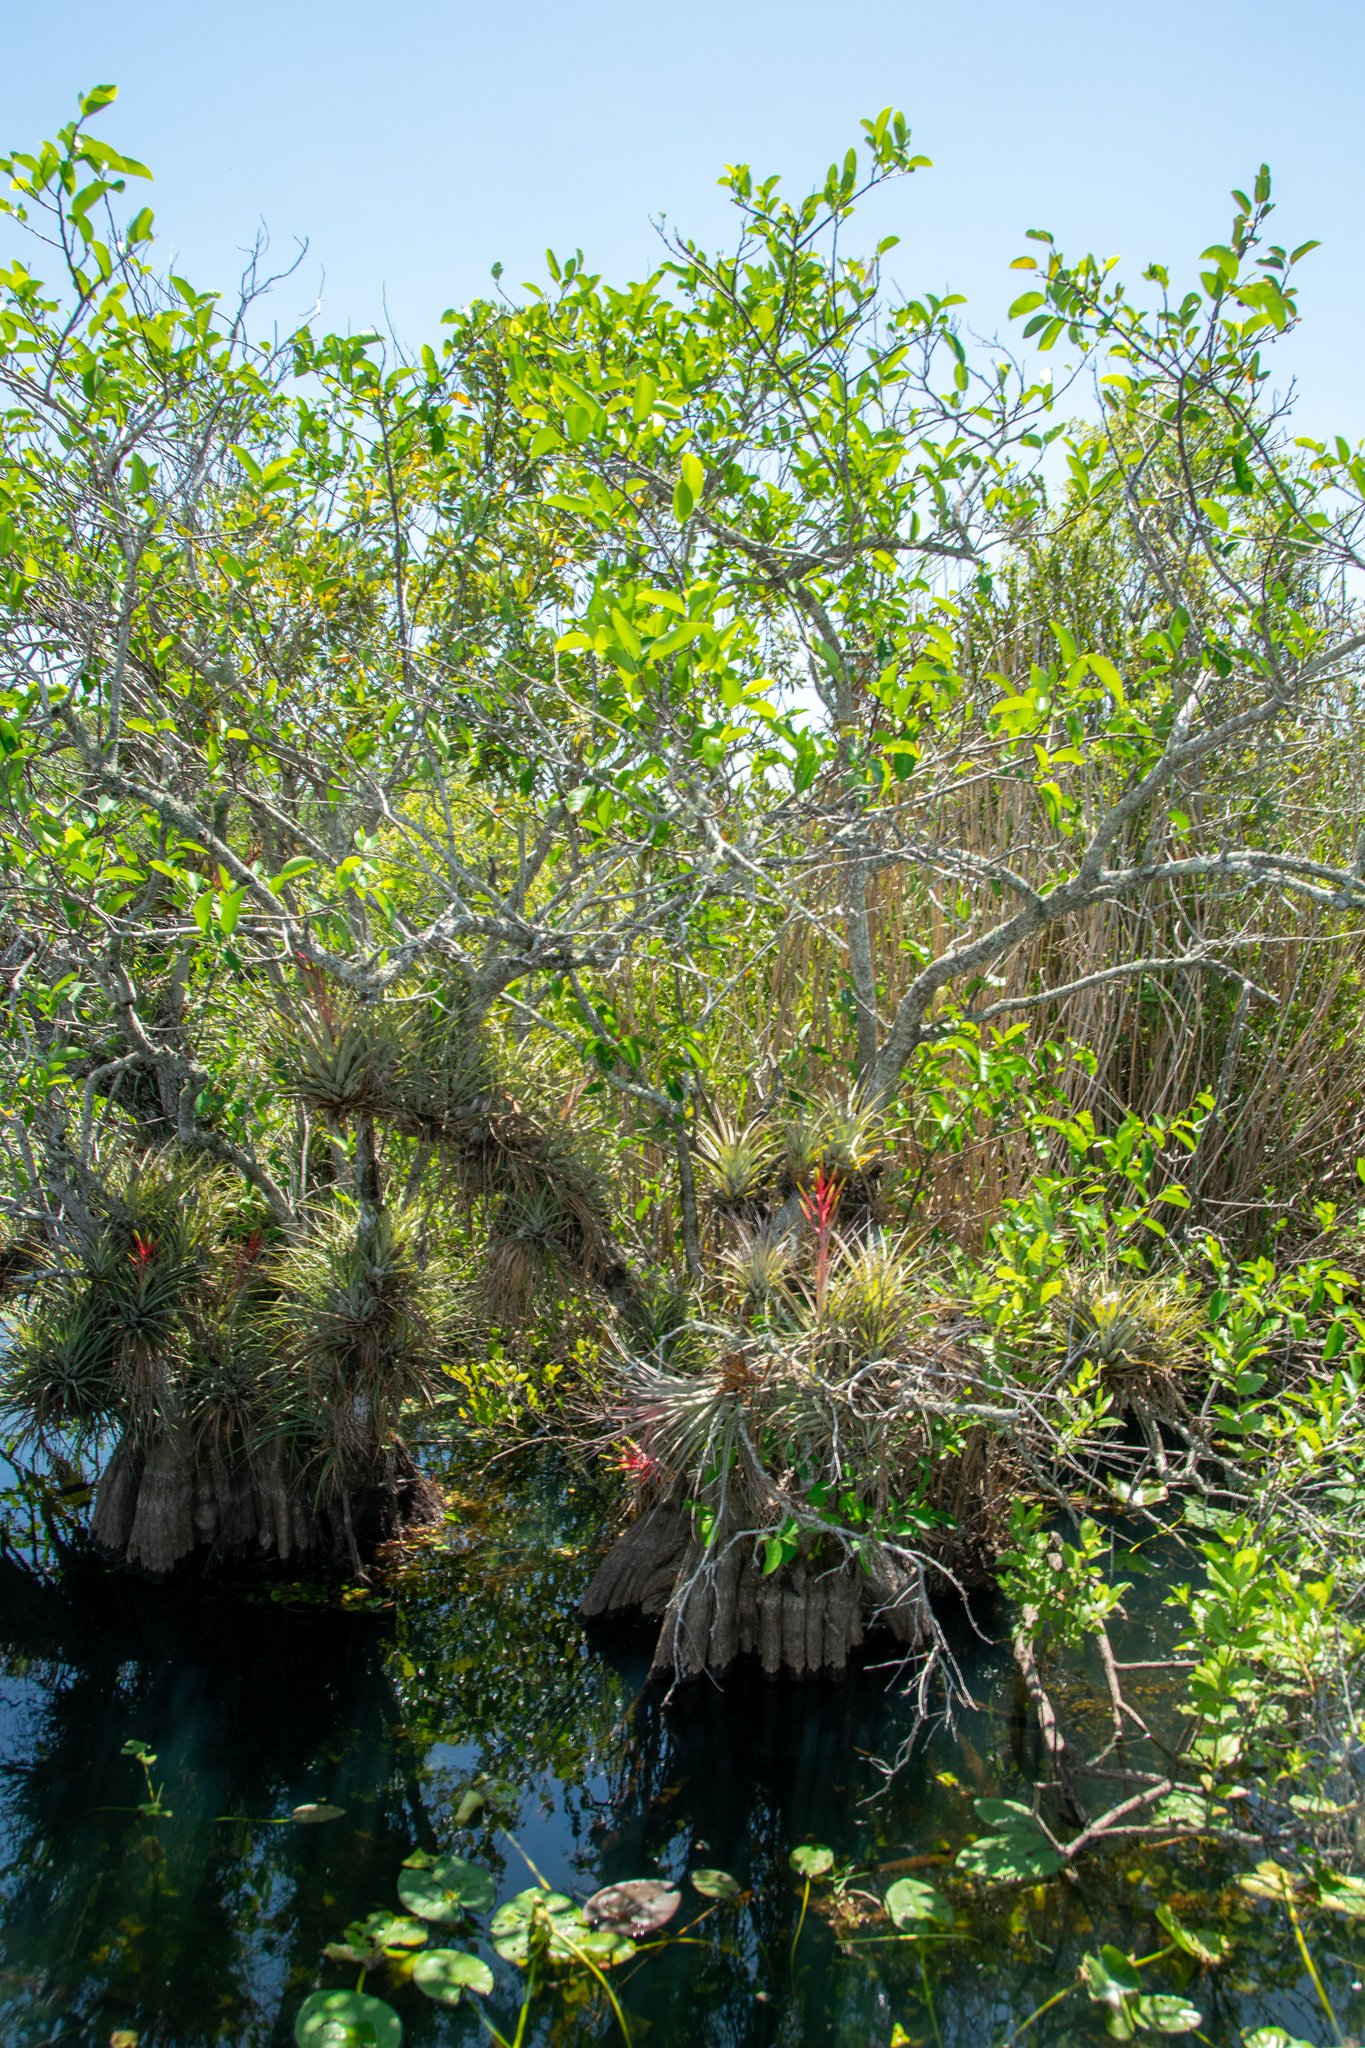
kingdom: Plantae
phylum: Tracheophyta
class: Liliopsida
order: Poales
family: Bromeliaceae
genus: Tillandsia
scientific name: Tillandsia fasciculata
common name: Giant airplant
